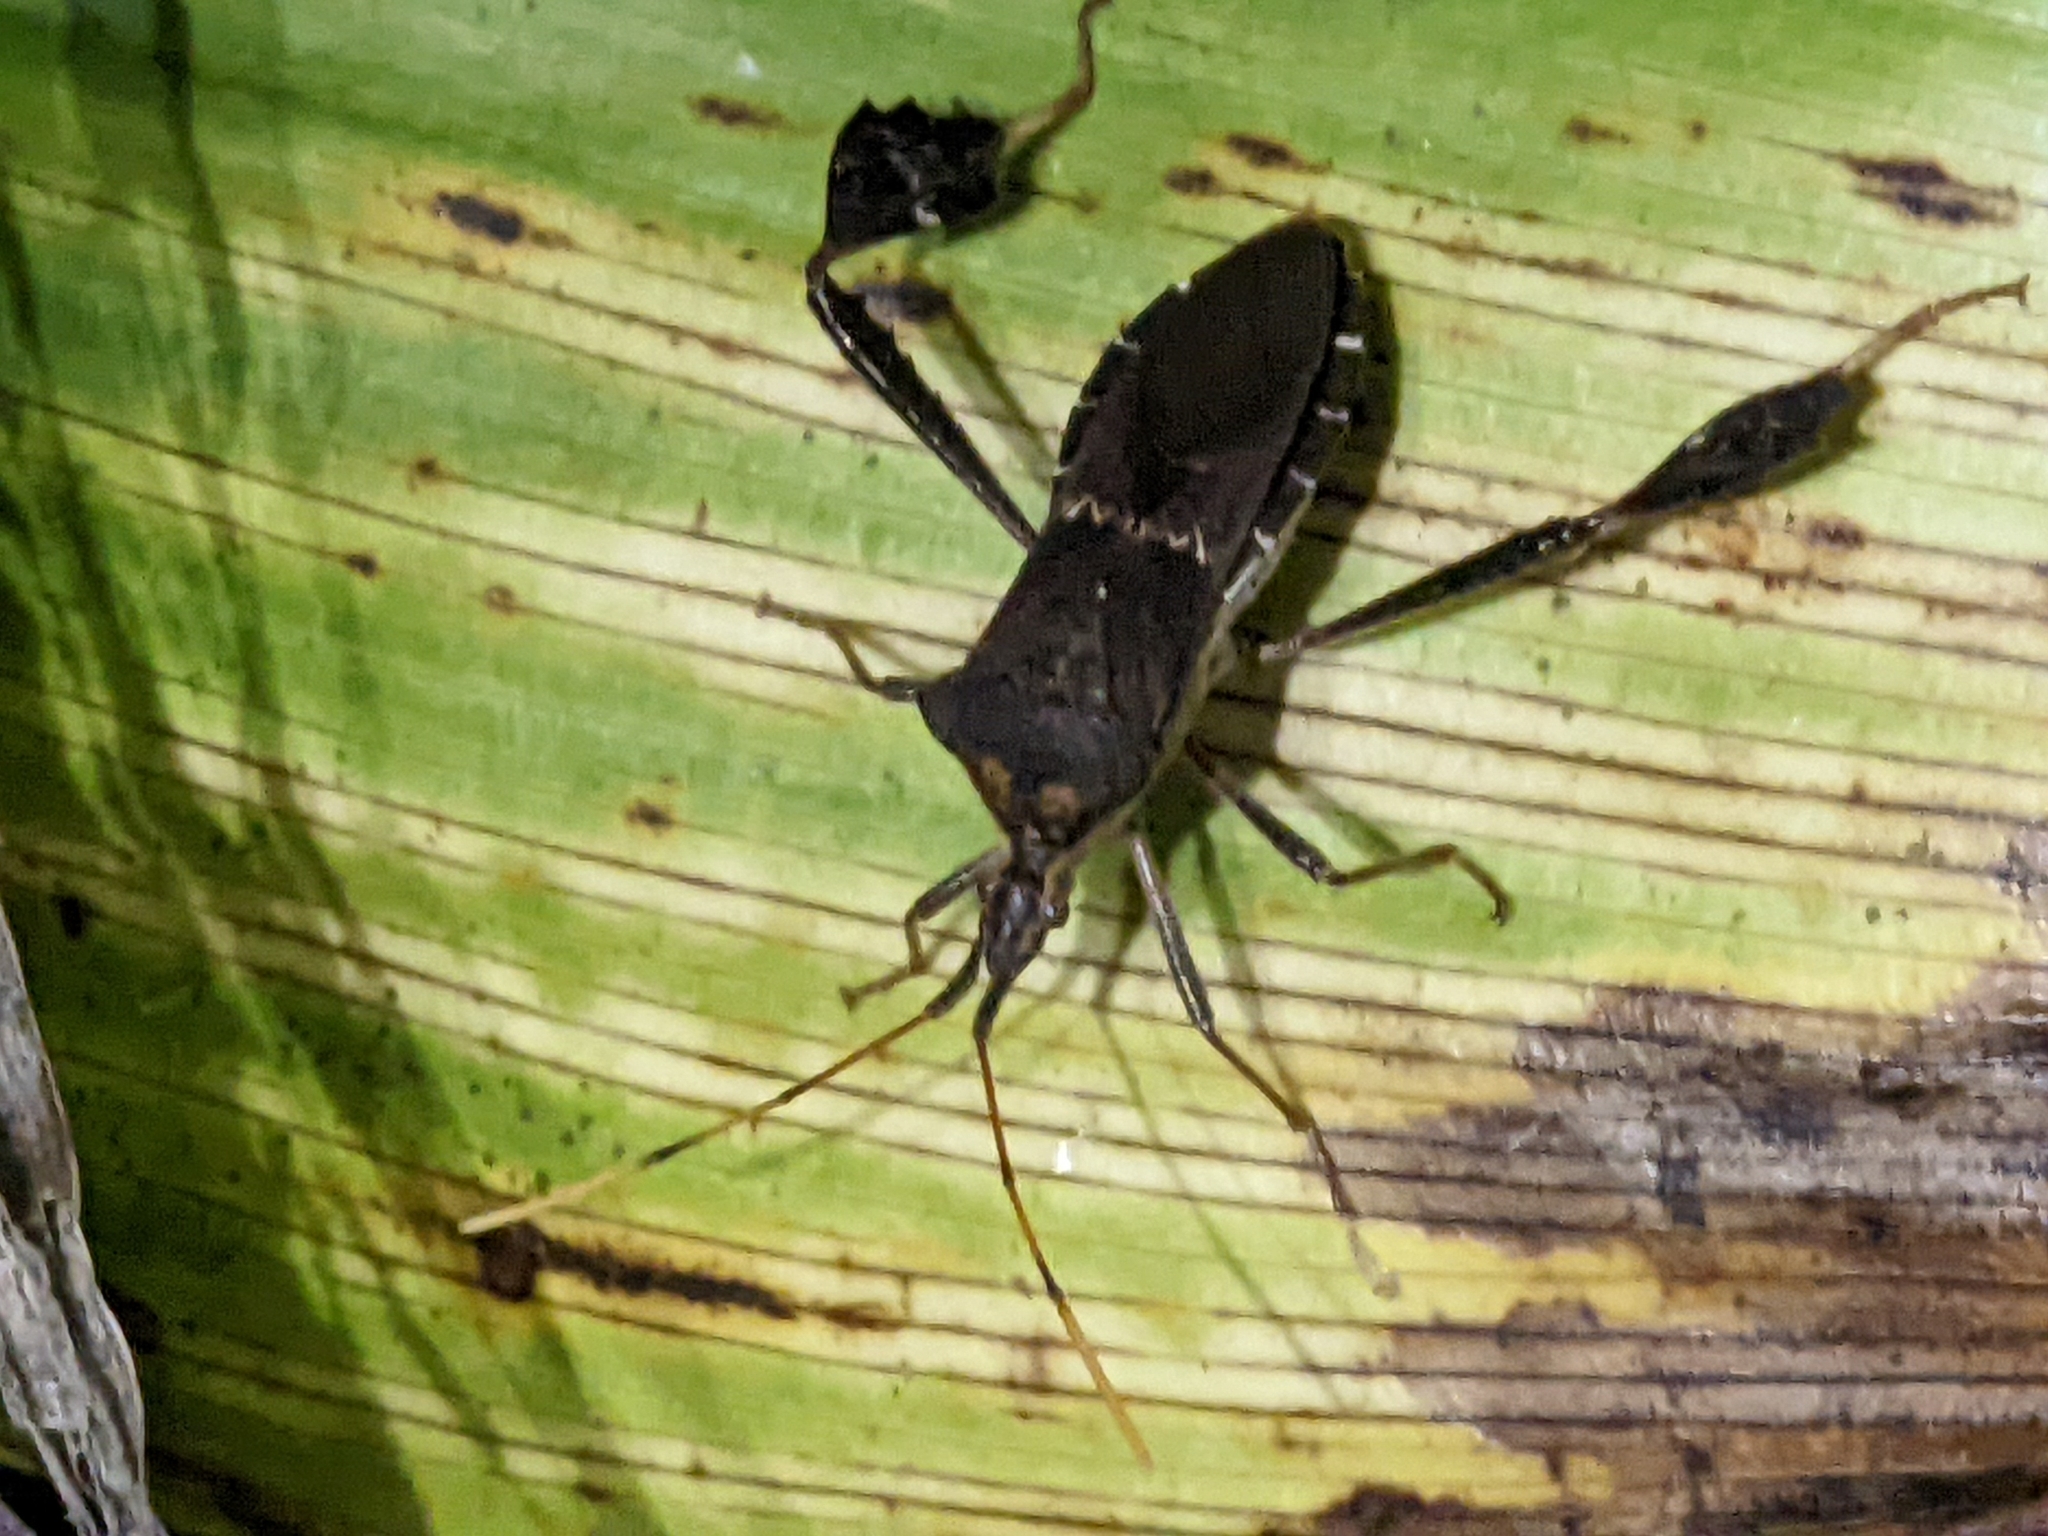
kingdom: Animalia
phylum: Arthropoda
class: Insecta
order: Hemiptera
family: Coreidae
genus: Leptoglossus
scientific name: Leptoglossus zonatus
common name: Large-legged bug
